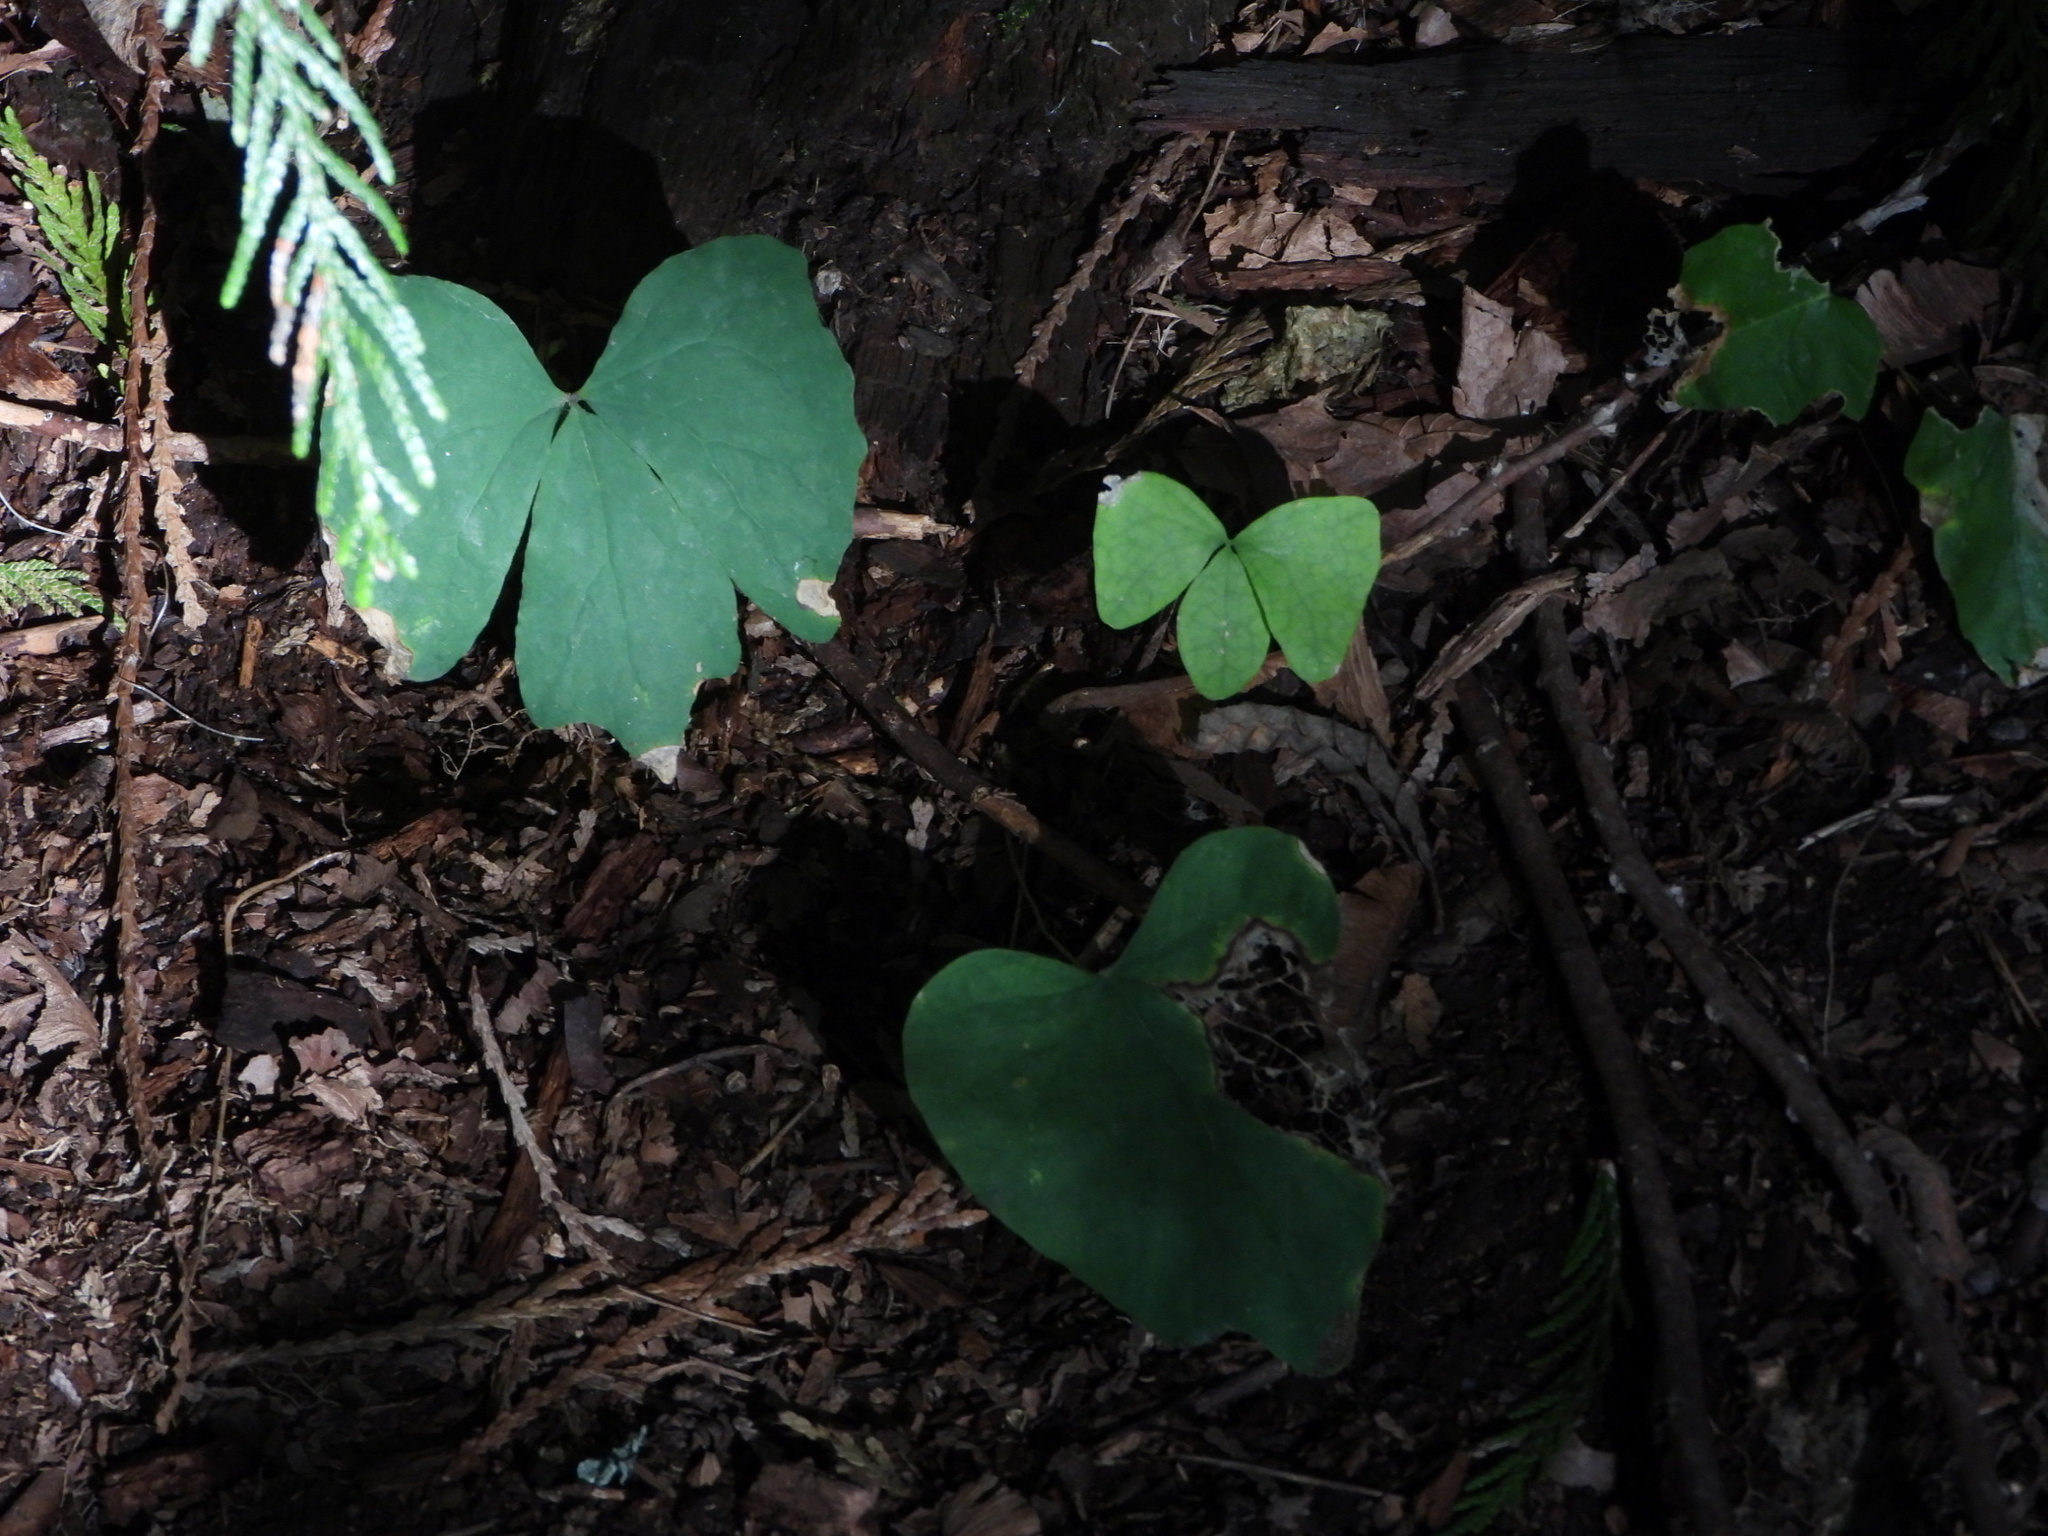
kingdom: Plantae
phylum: Tracheophyta
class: Magnoliopsida
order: Ranunculales
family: Berberidaceae
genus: Achlys
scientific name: Achlys triphylla
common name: Vanilla-leaf
